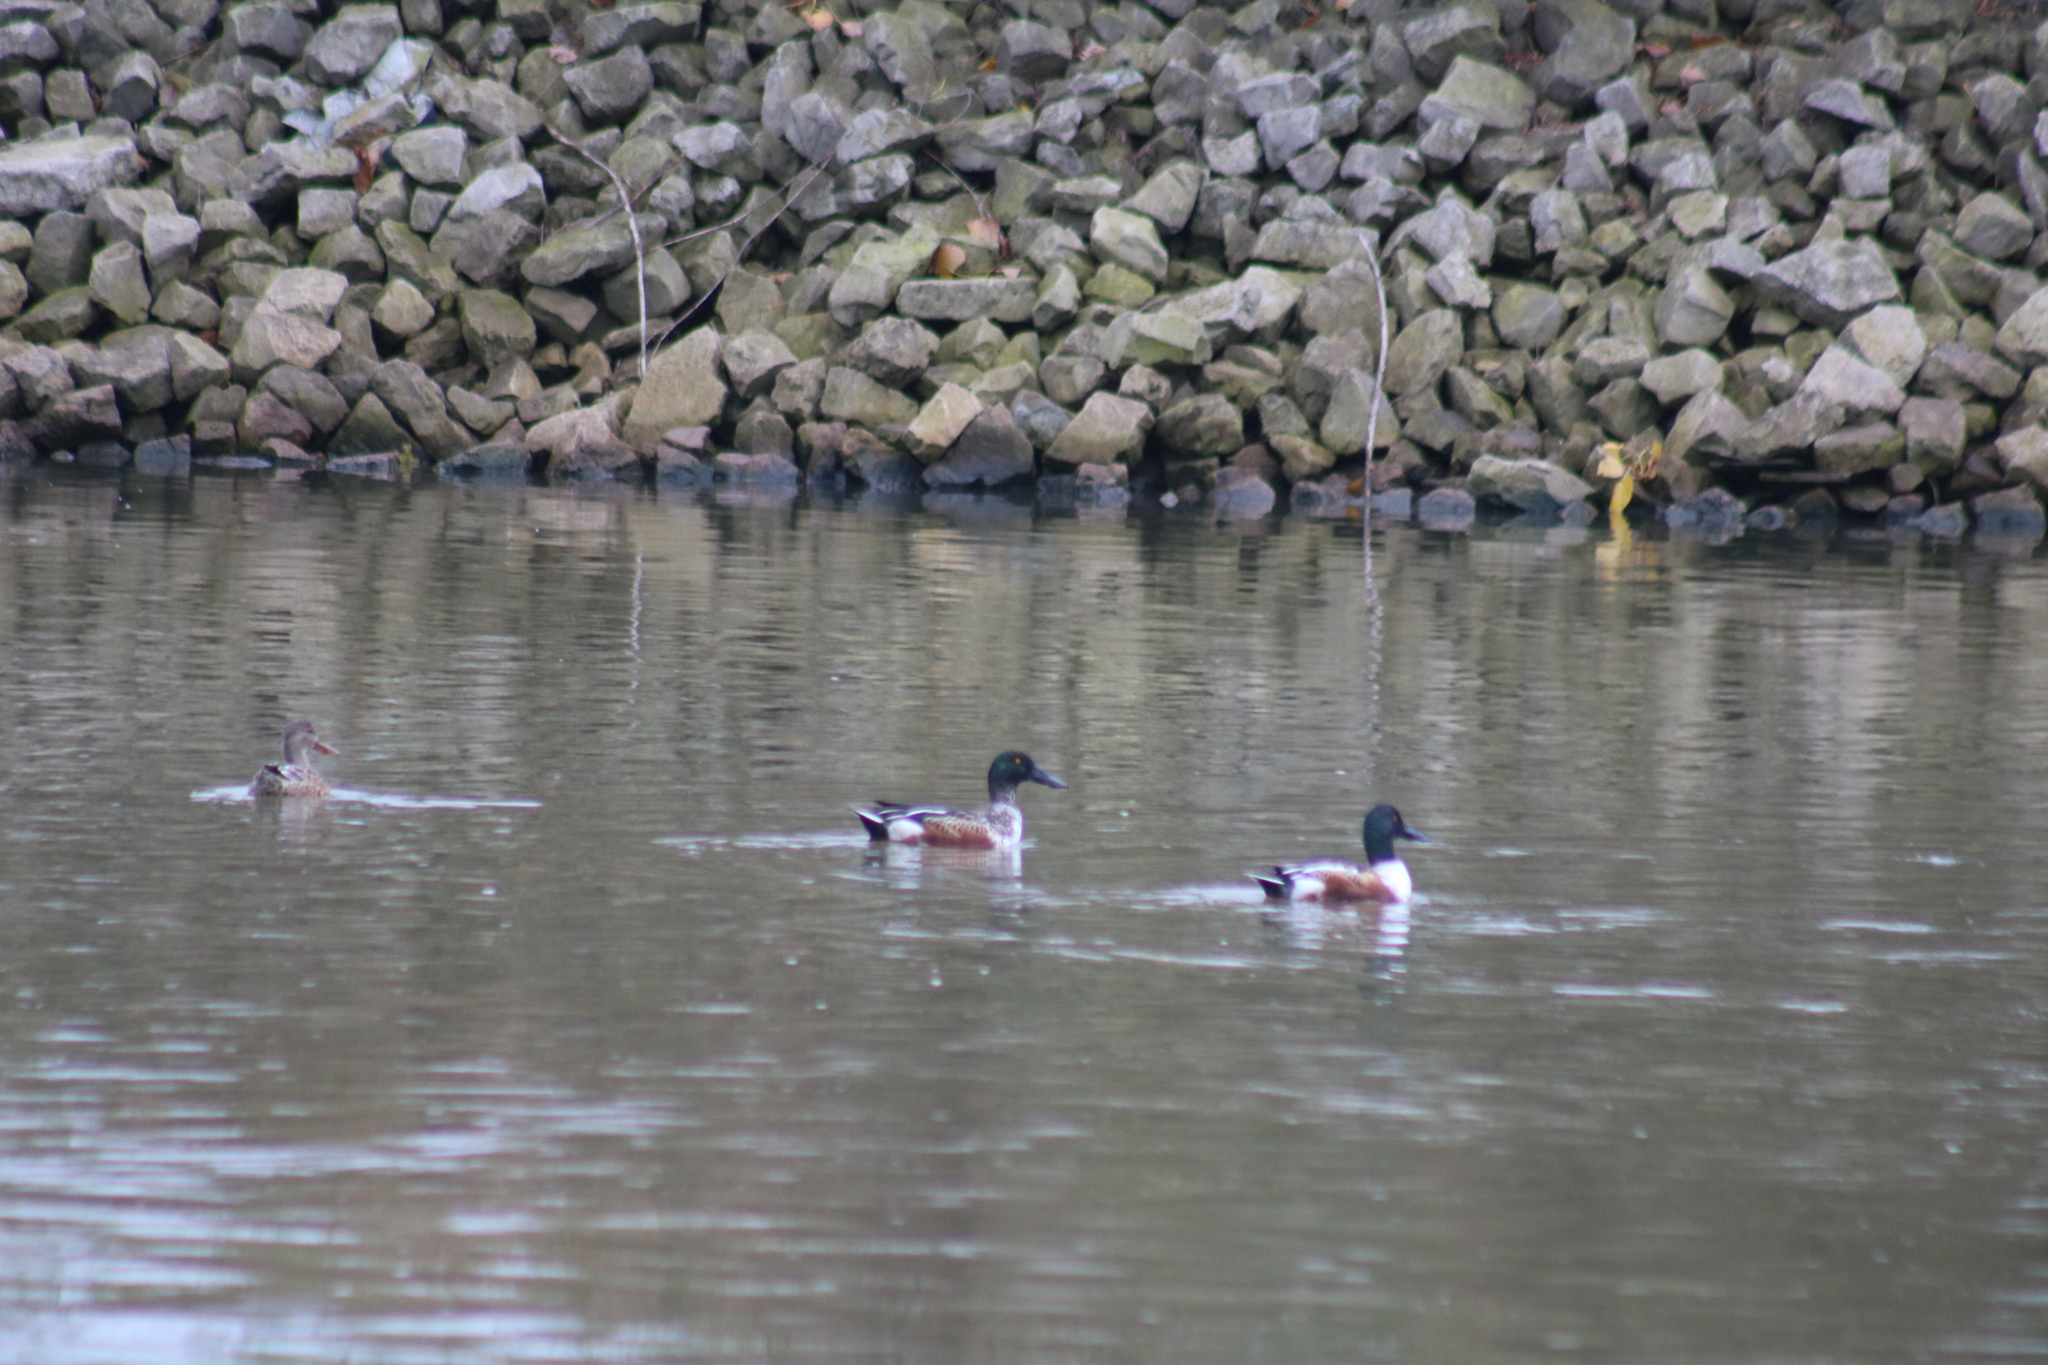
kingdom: Animalia
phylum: Chordata
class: Aves
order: Anseriformes
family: Anatidae
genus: Spatula
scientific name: Spatula clypeata
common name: Northern shoveler
